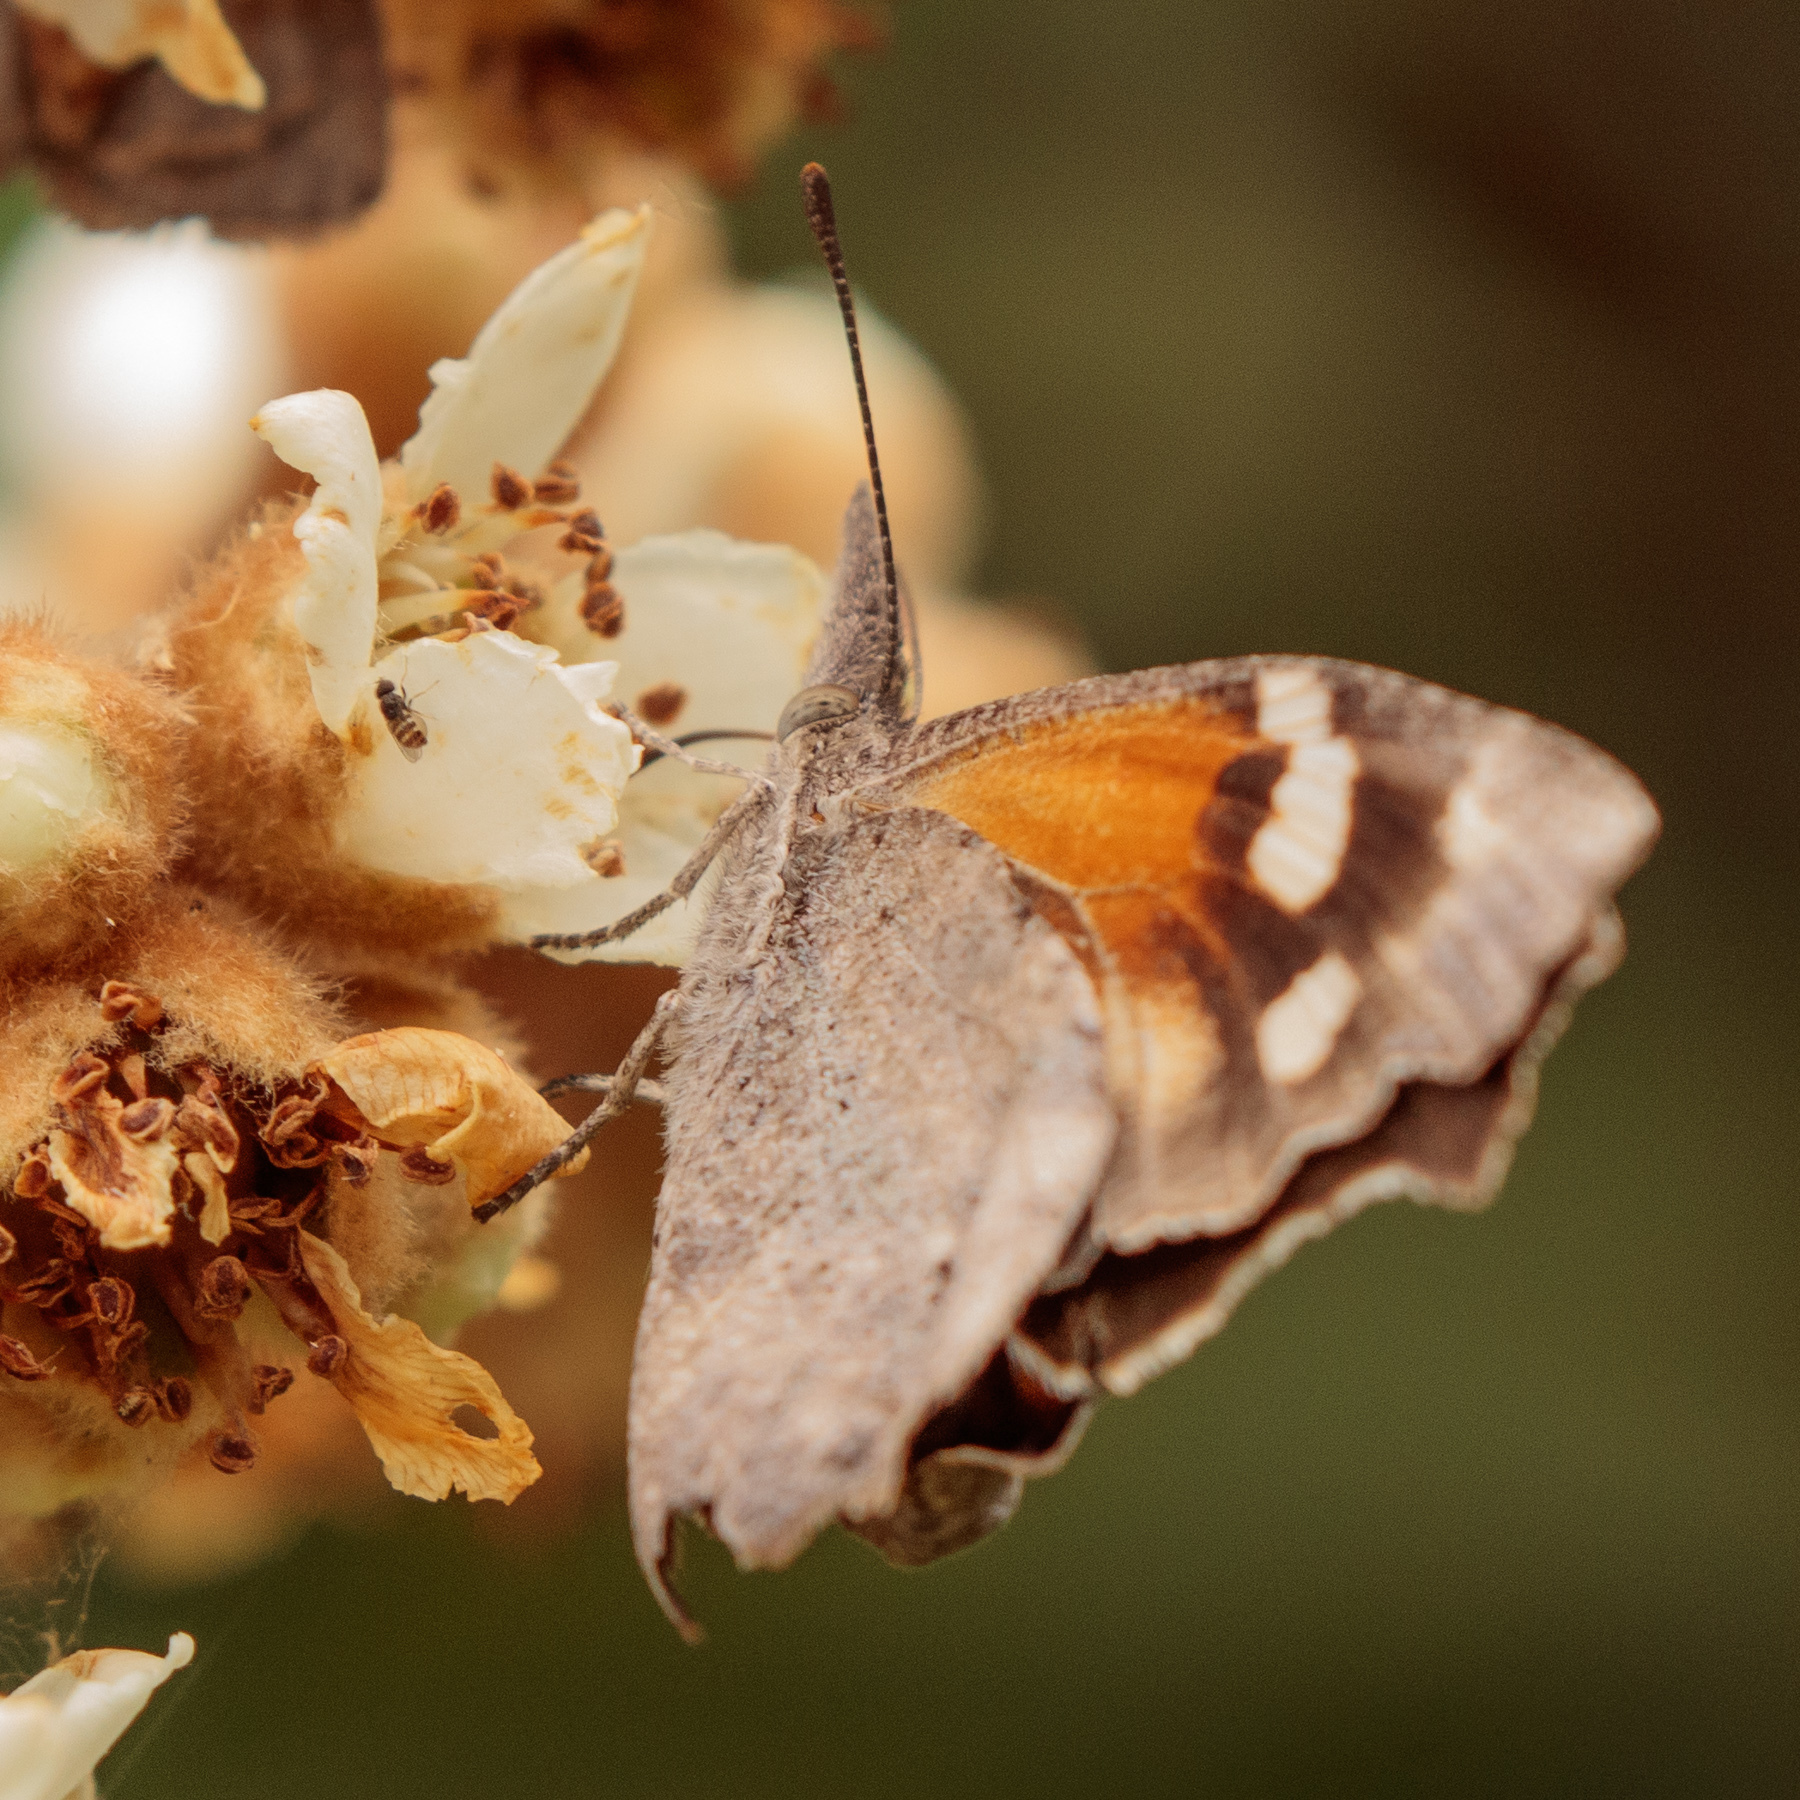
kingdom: Animalia
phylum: Arthropoda
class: Insecta
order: Lepidoptera
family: Nymphalidae
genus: Libytheana
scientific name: Libytheana carinenta
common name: American snout
